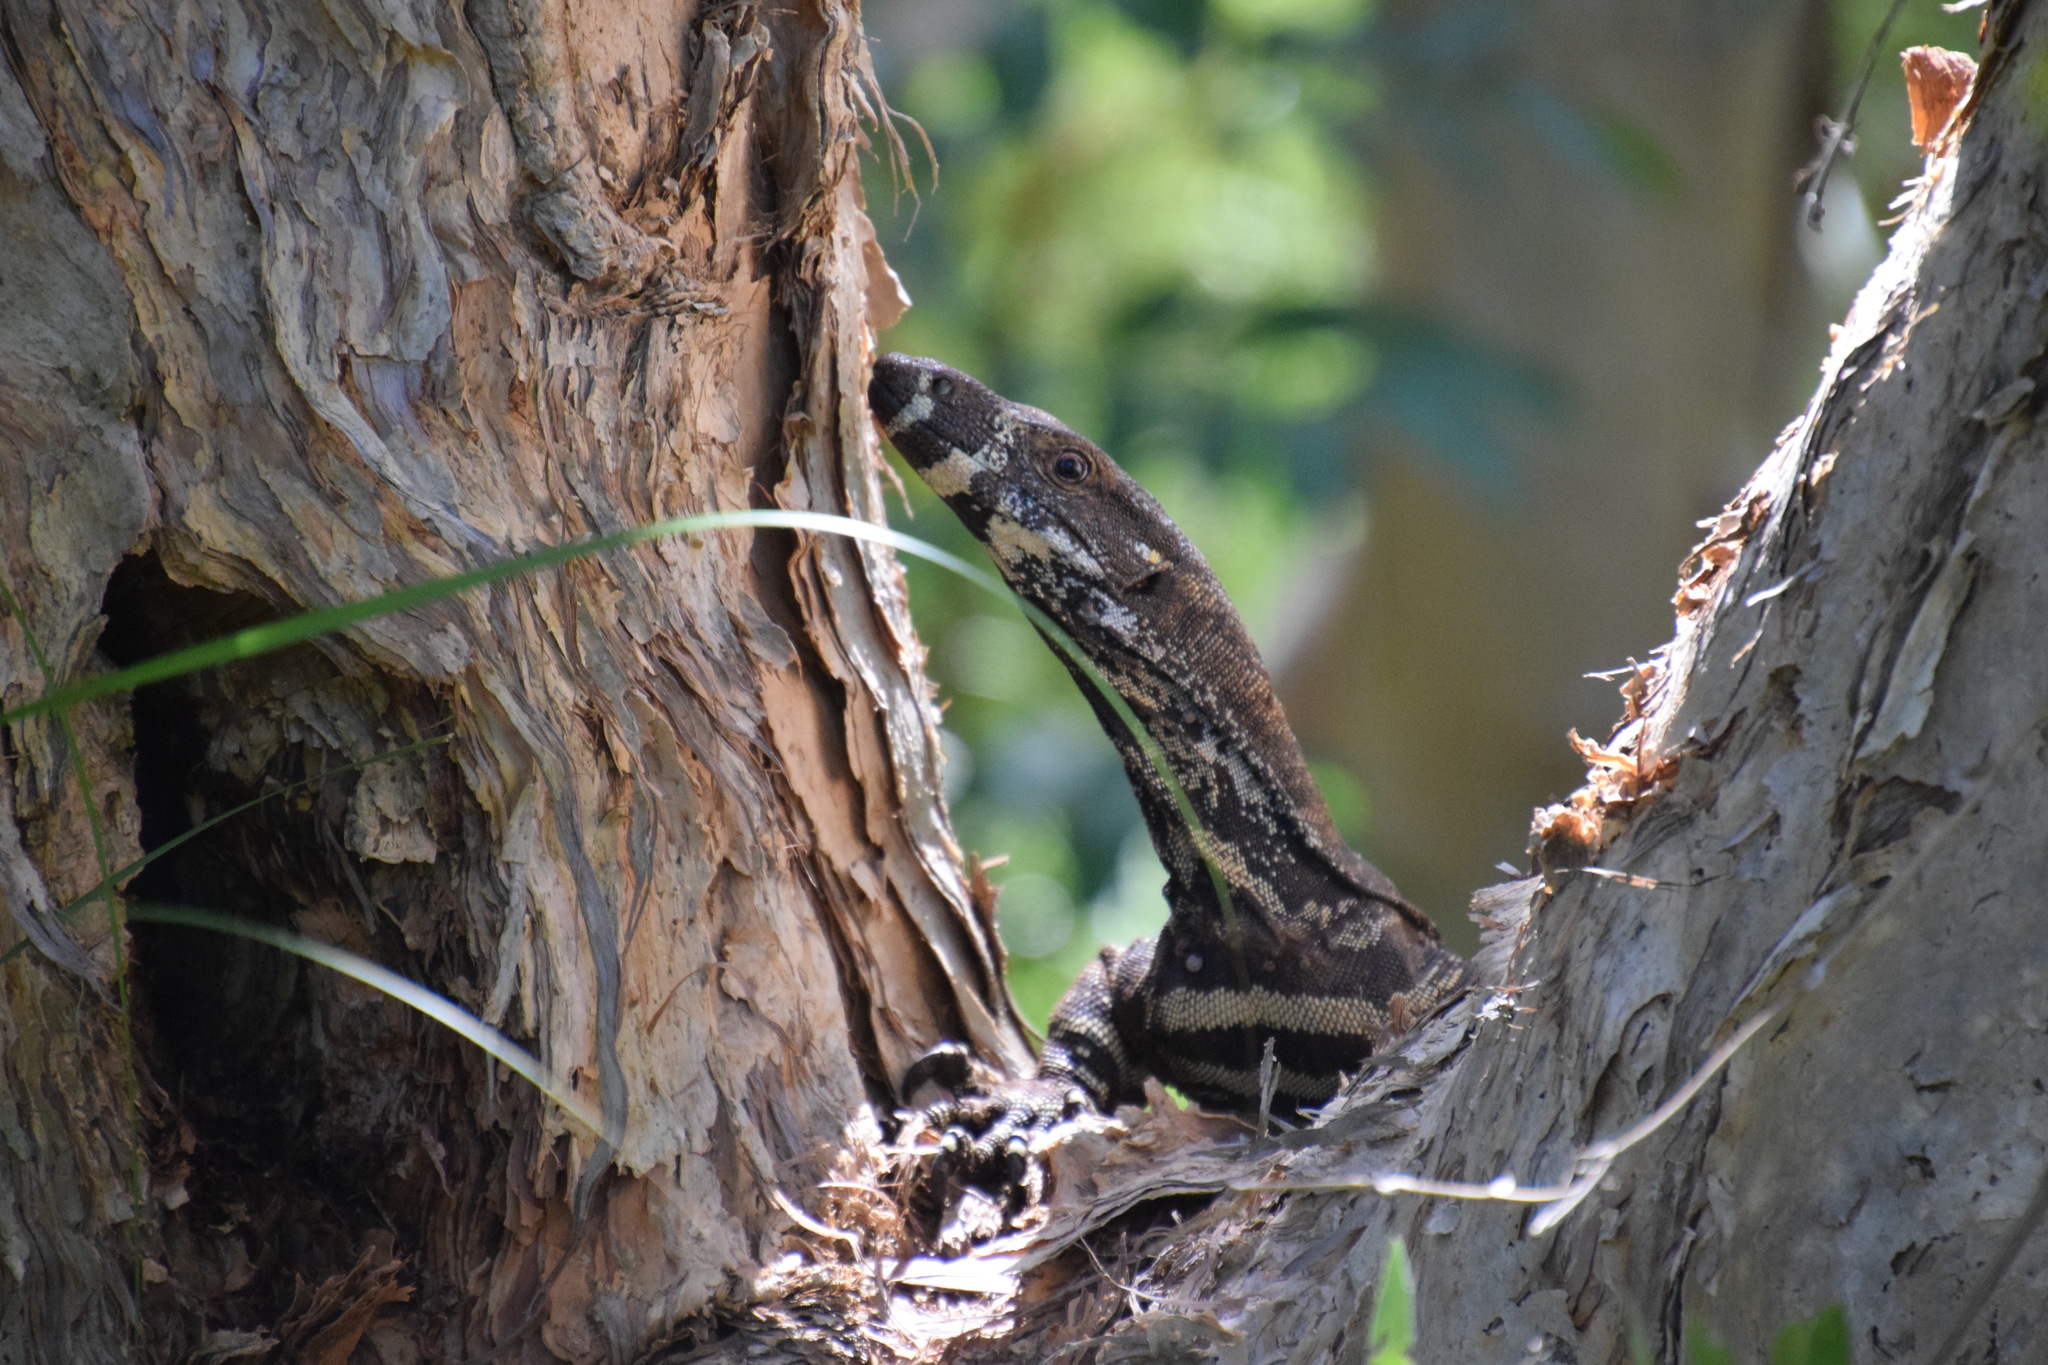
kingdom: Animalia
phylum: Chordata
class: Squamata
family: Varanidae
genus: Varanus
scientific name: Varanus varius
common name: Lace monitor
